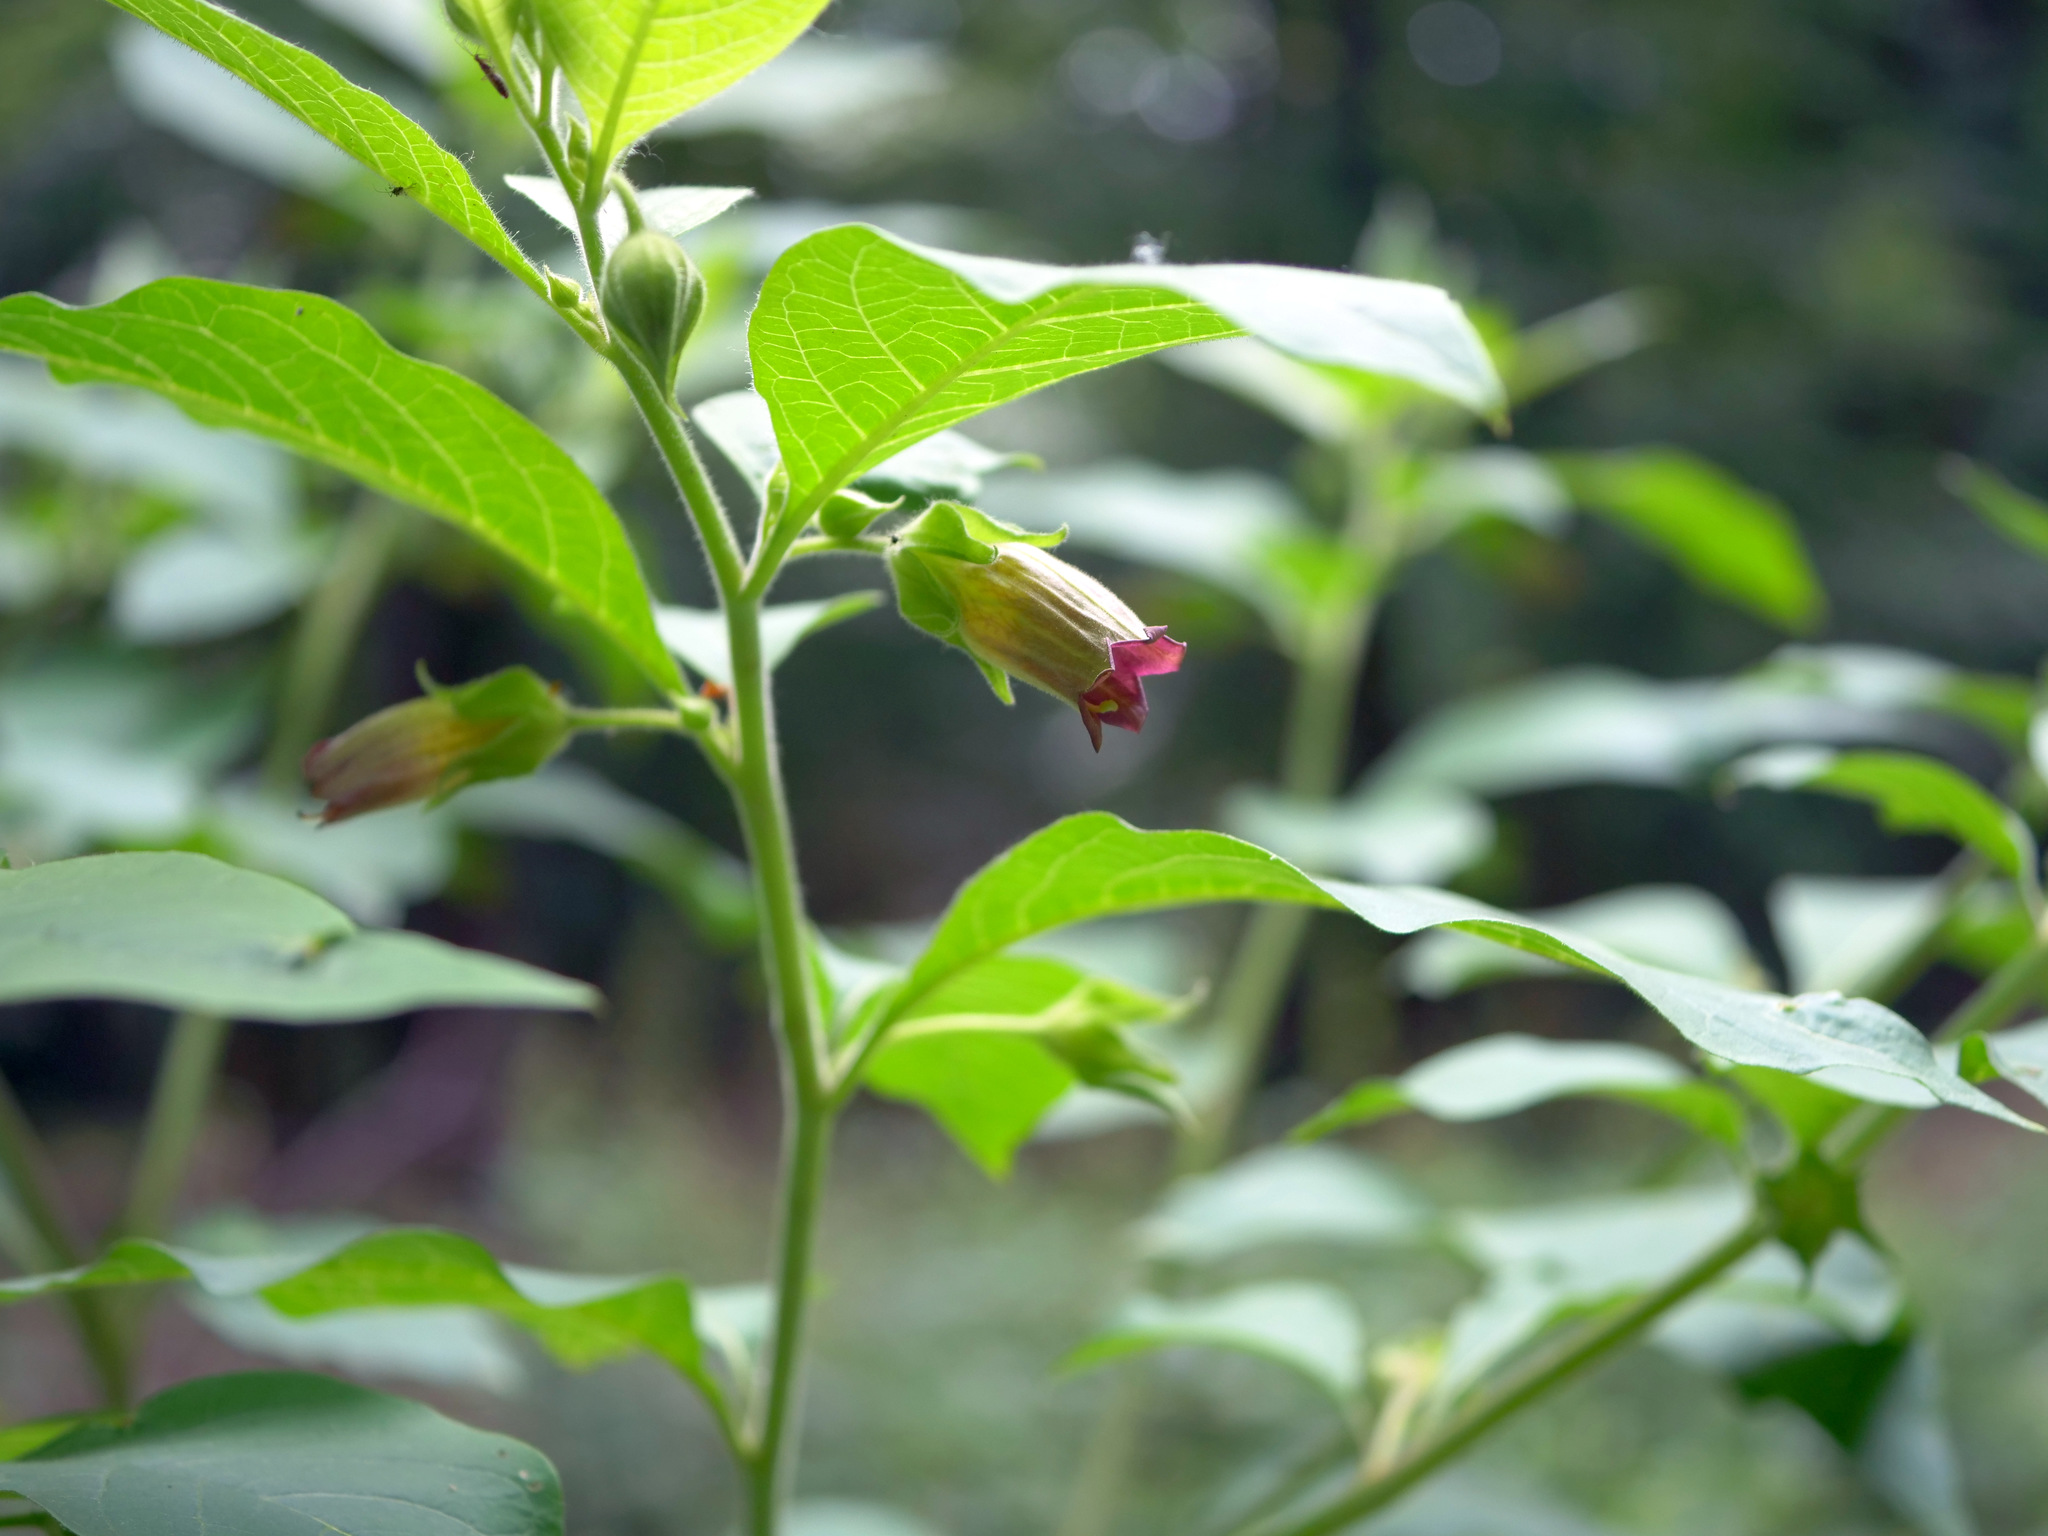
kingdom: Plantae
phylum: Tracheophyta
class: Magnoliopsida
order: Solanales
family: Solanaceae
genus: Atropa
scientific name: Atropa belladonna
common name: Deadly nightshade
